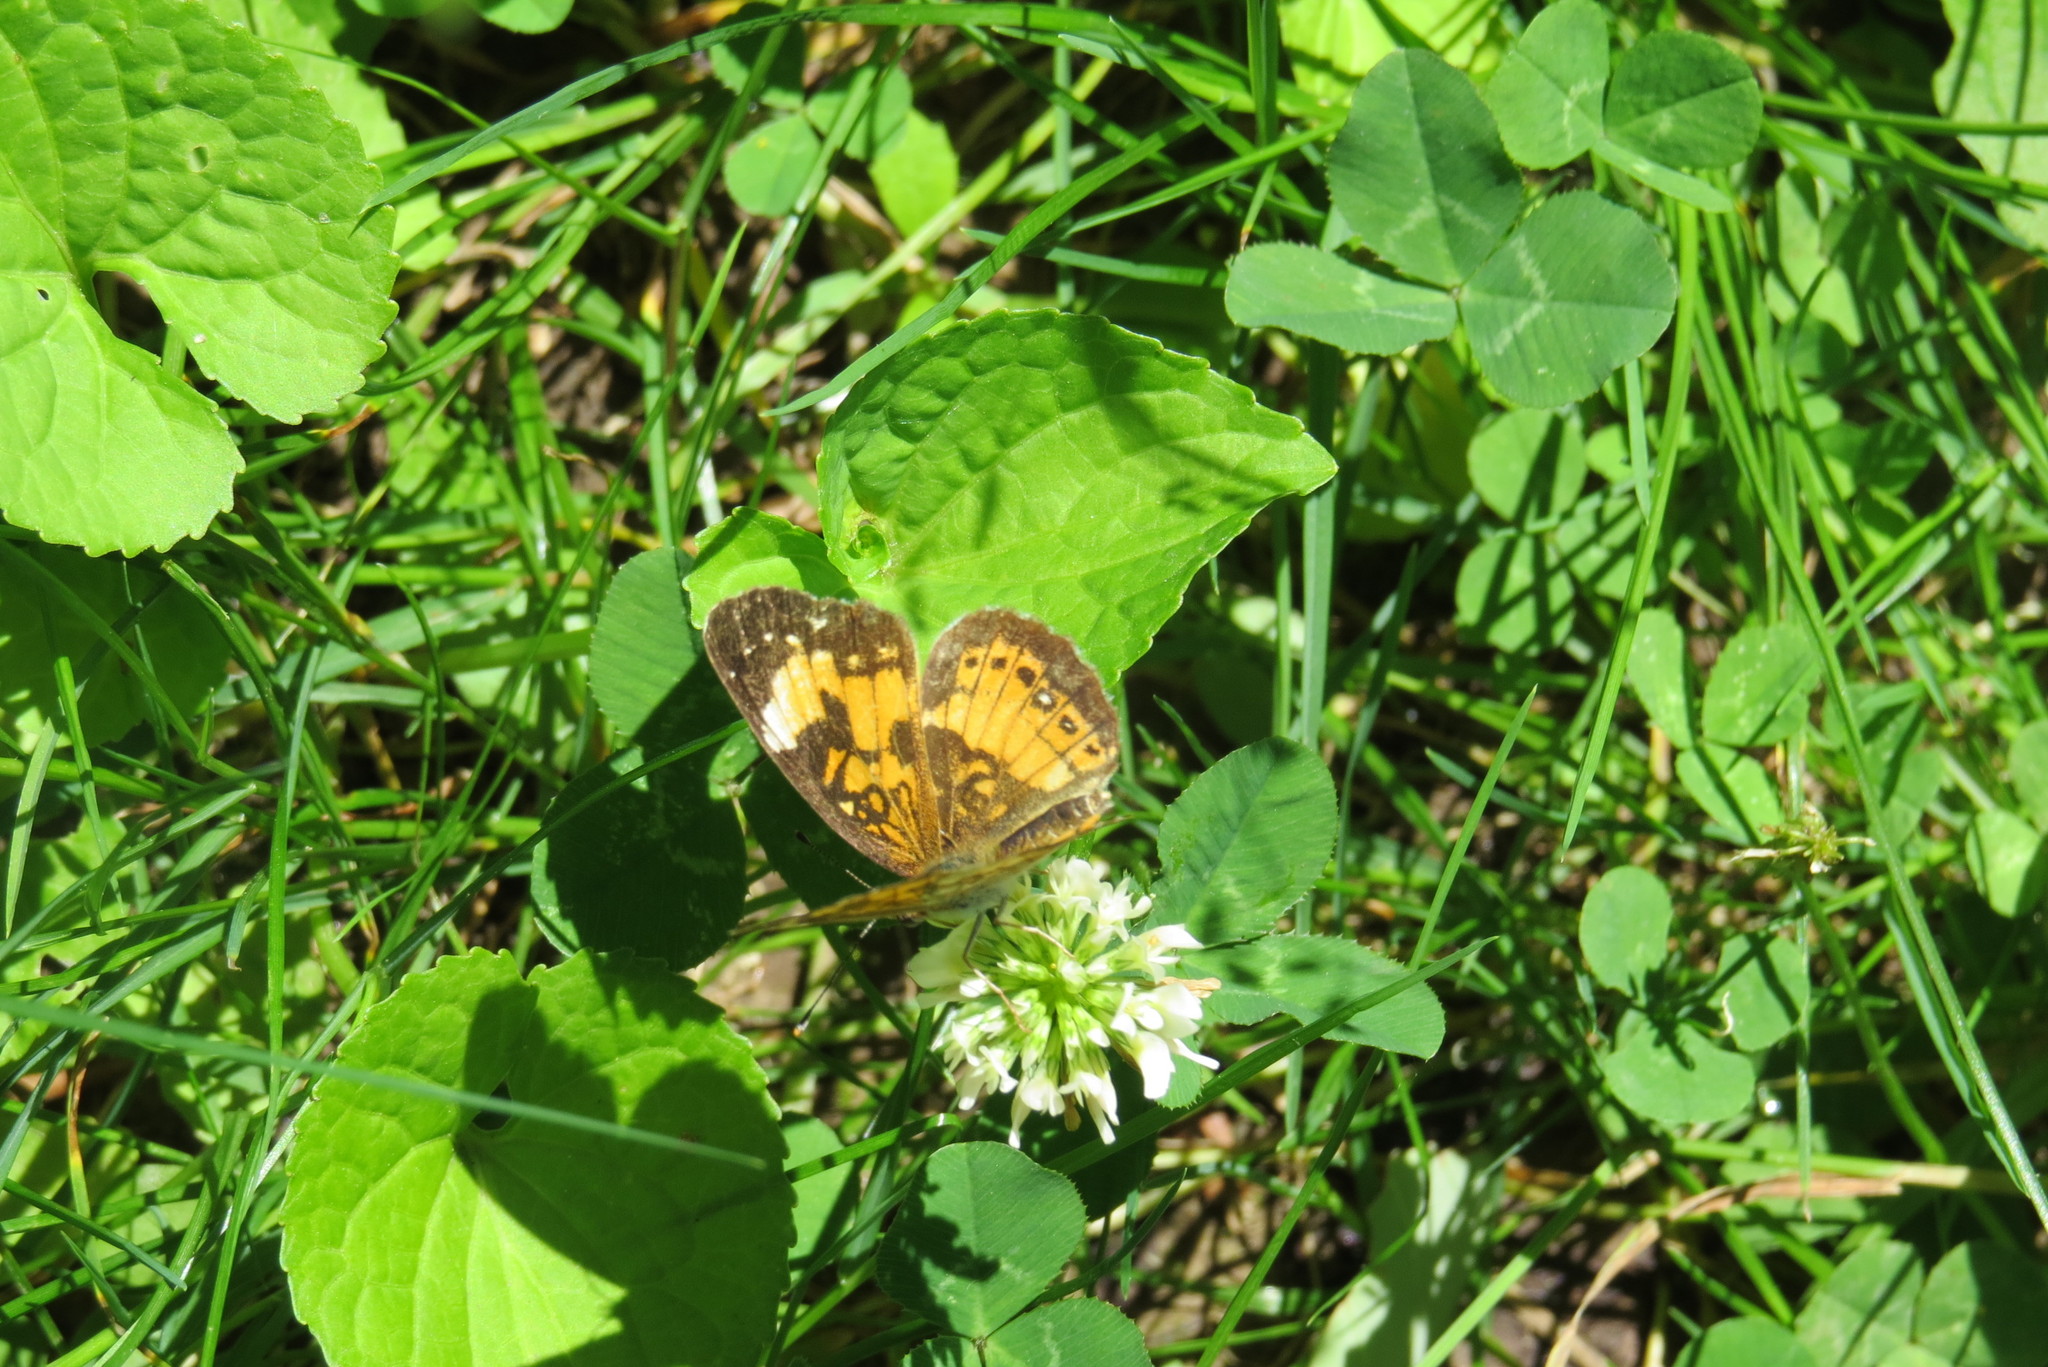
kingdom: Animalia
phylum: Arthropoda
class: Insecta
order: Lepidoptera
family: Nymphalidae
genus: Chlosyne
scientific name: Chlosyne nycteis
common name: Silvery checkerspot
